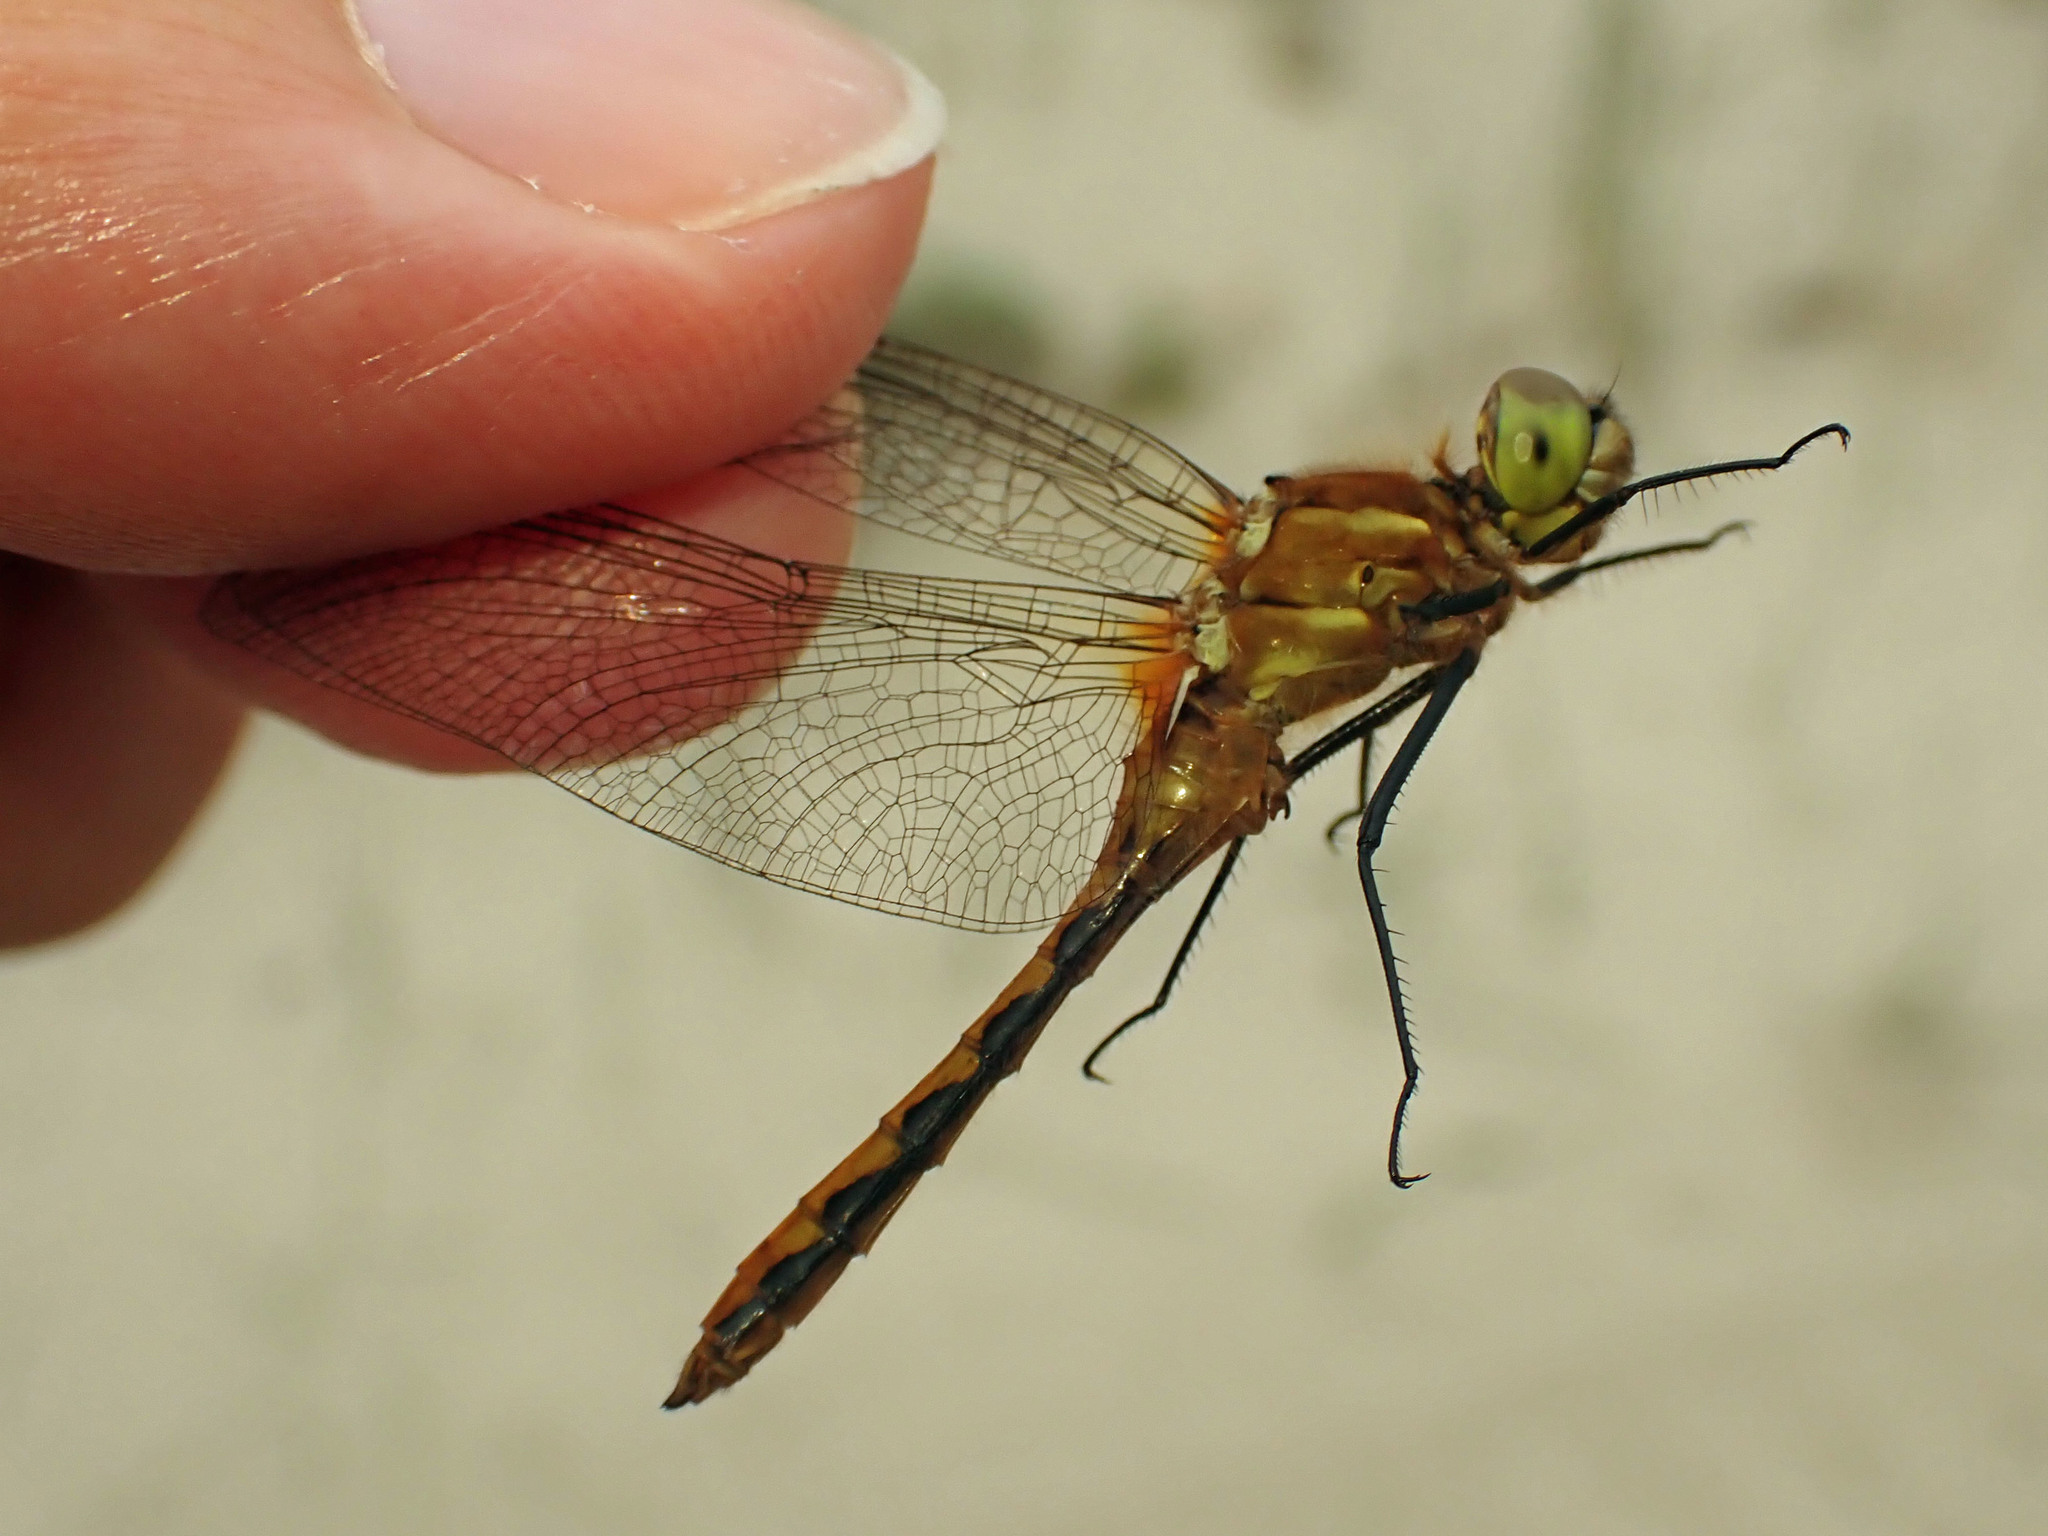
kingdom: Animalia
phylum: Arthropoda
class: Insecta
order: Odonata
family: Libellulidae
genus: Sympetrum
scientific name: Sympetrum internum
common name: Cherry-faced meadowhawk
